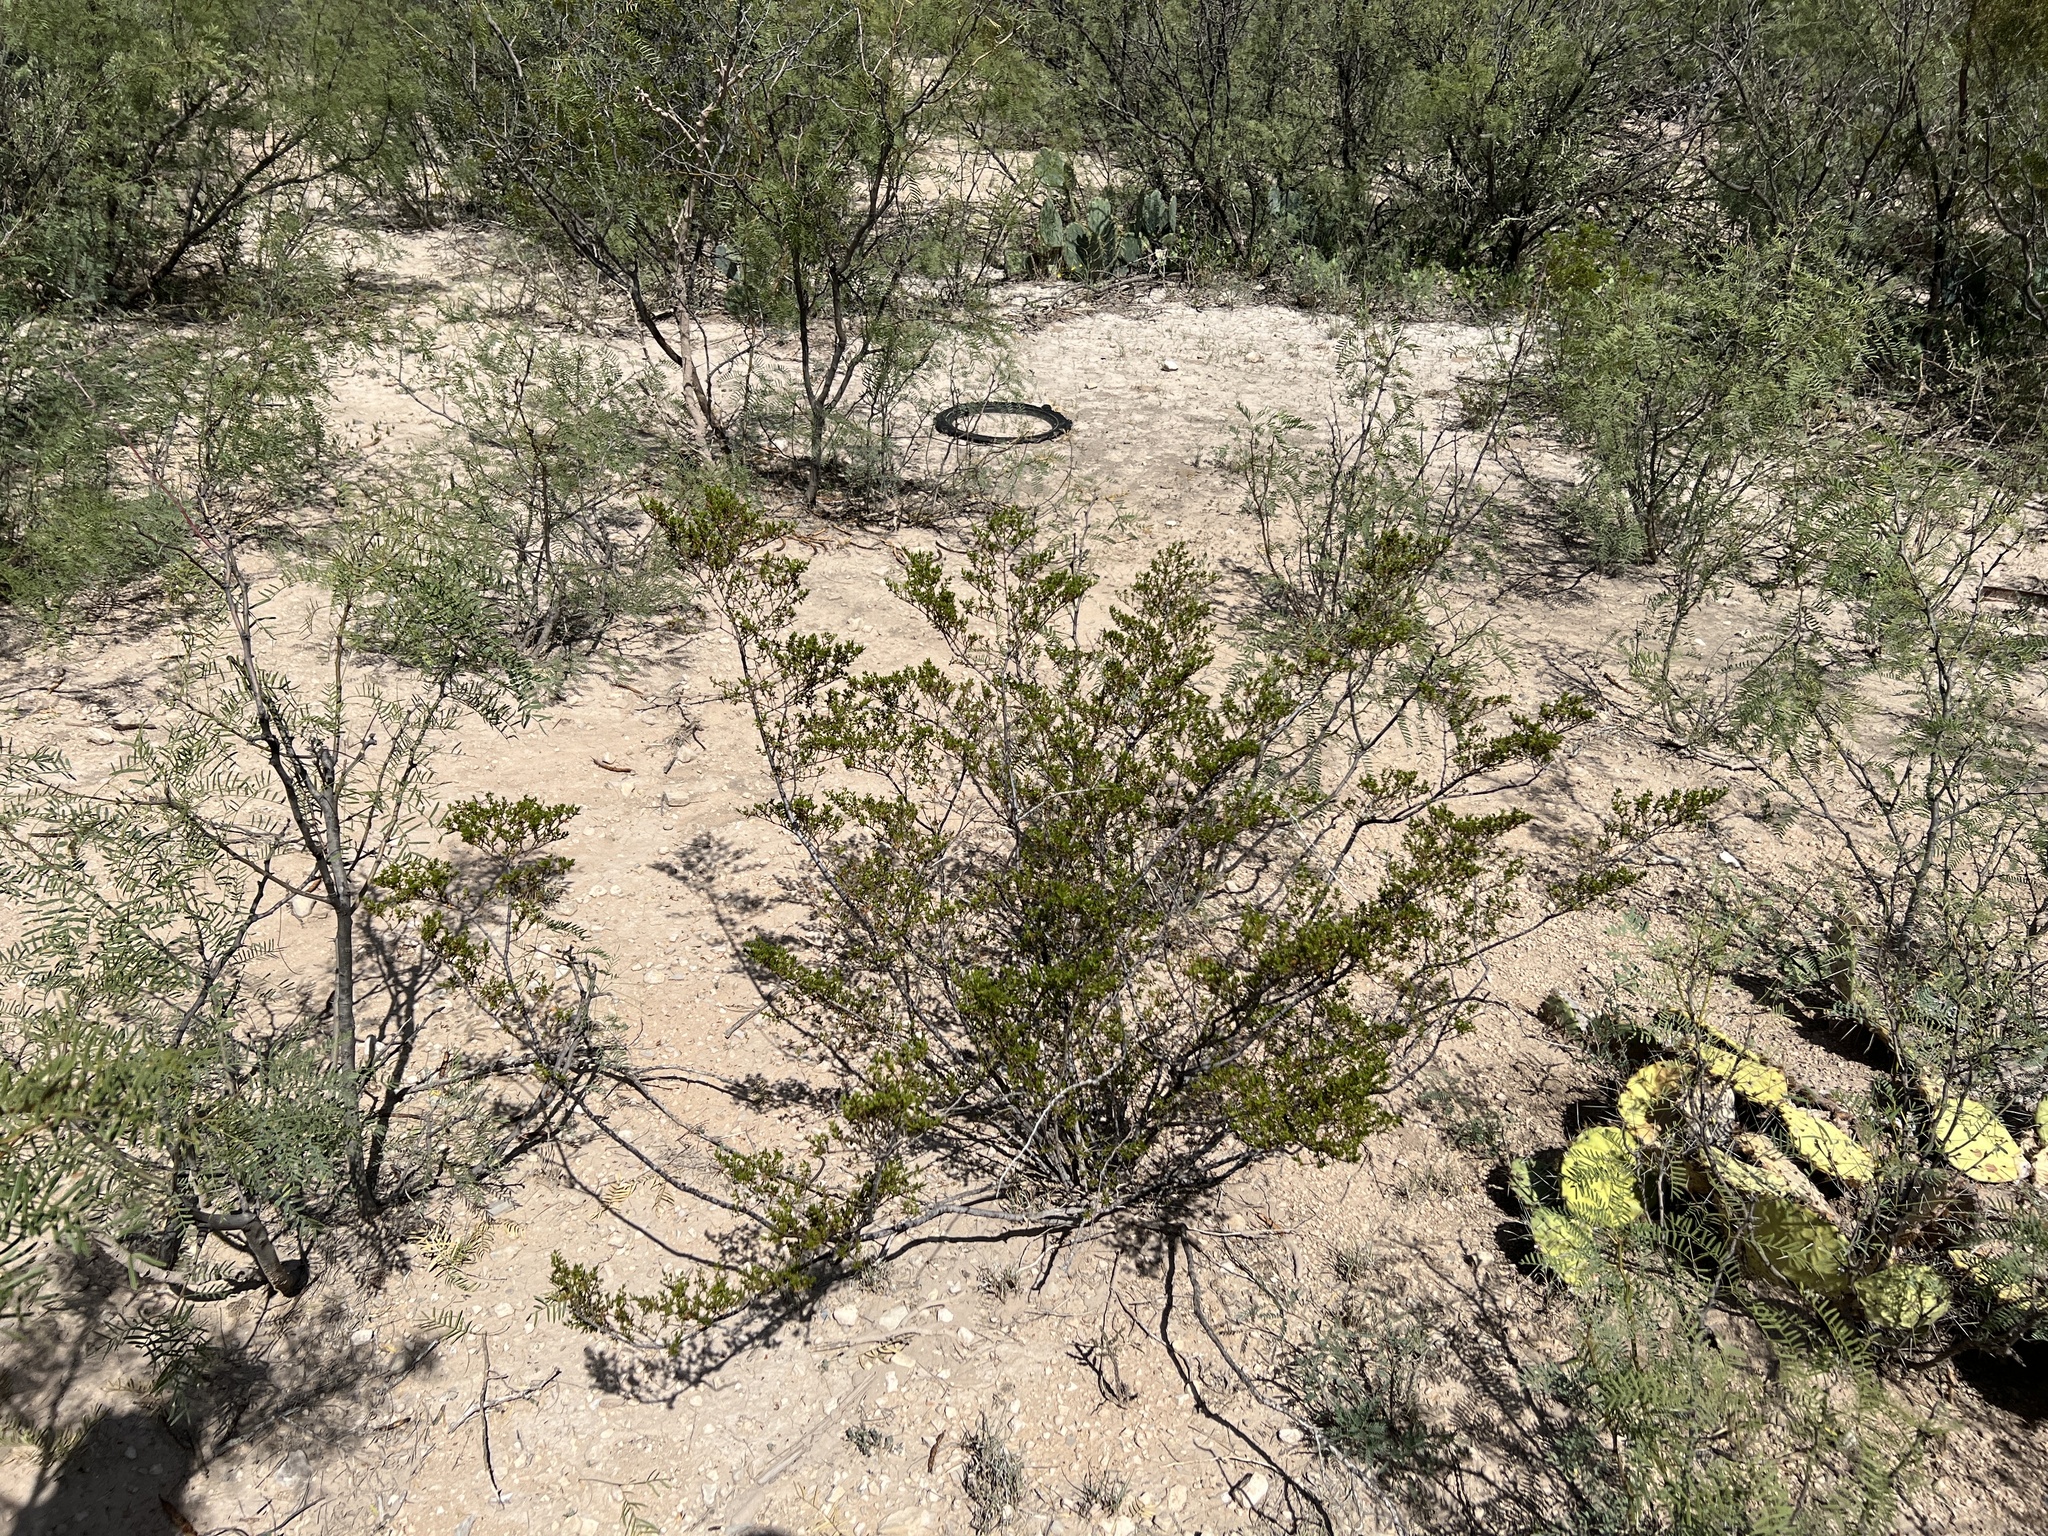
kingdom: Plantae
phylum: Tracheophyta
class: Magnoliopsida
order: Zygophyllales
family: Zygophyllaceae
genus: Larrea
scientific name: Larrea tridentata
